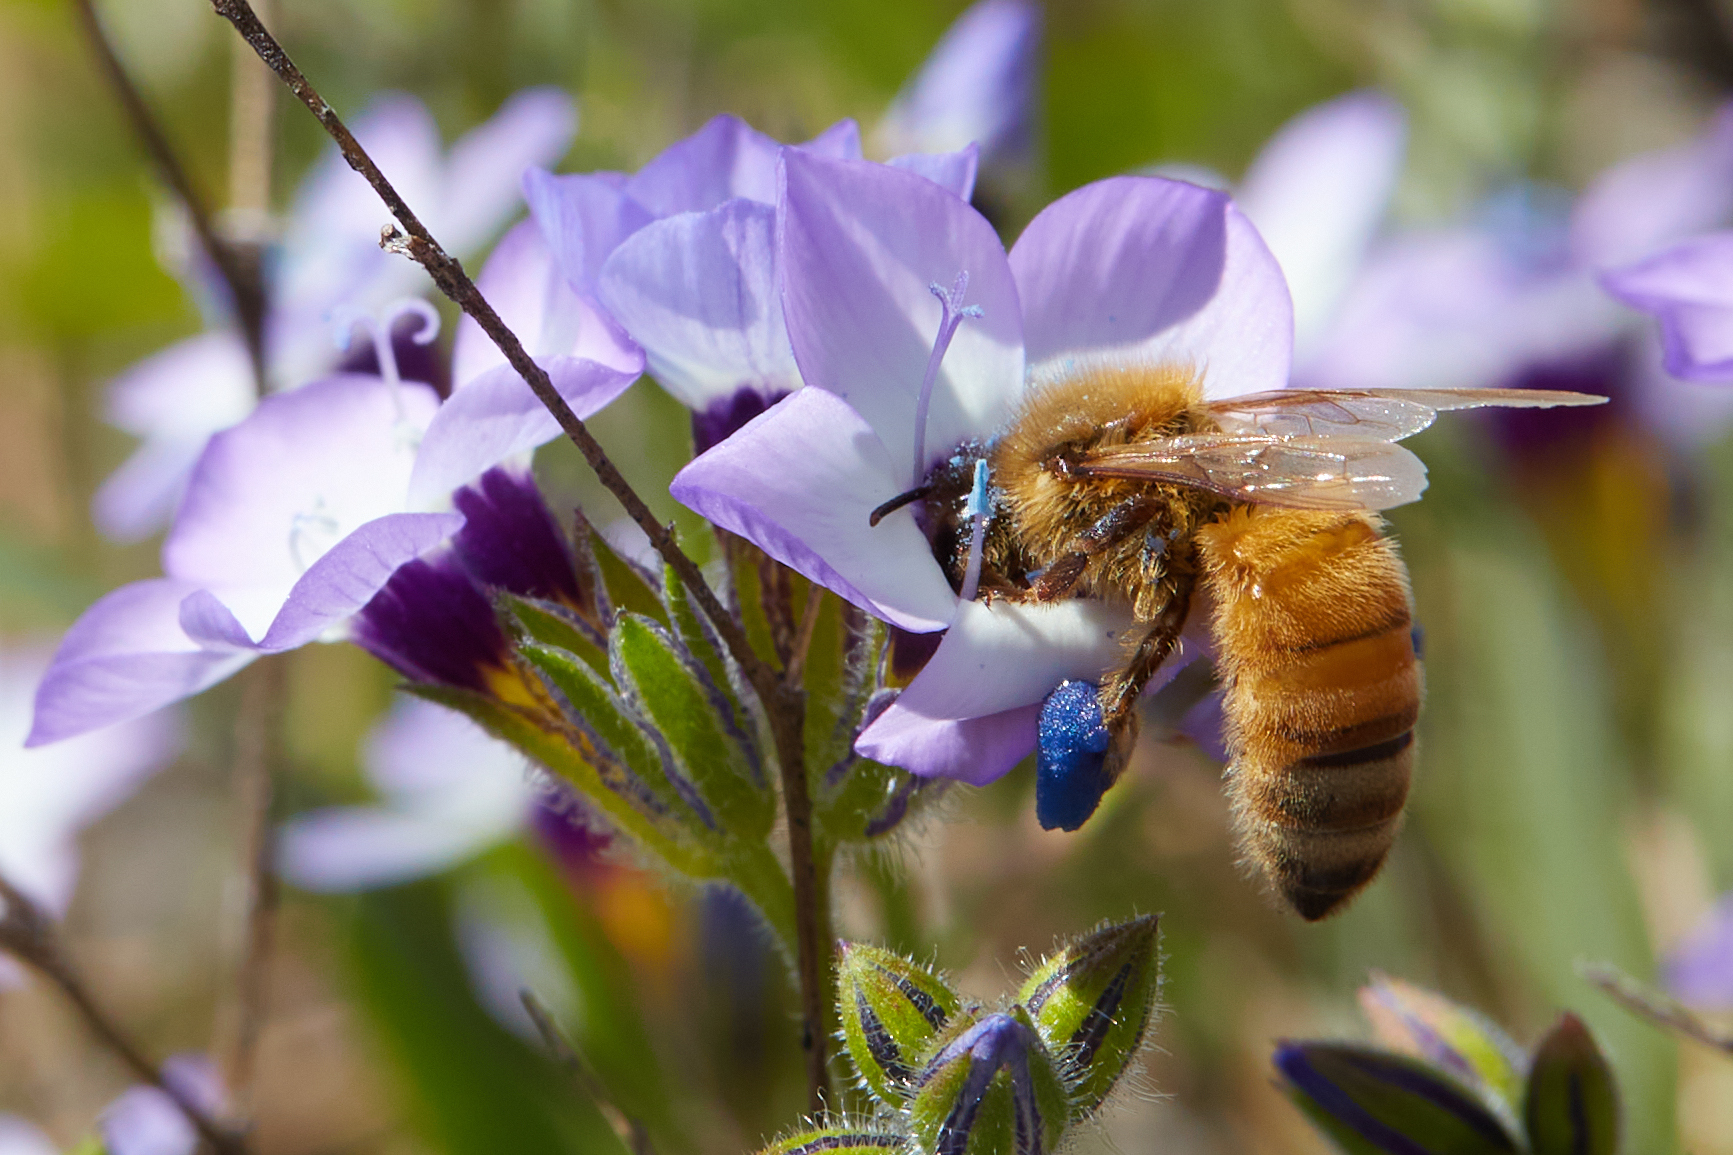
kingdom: Animalia
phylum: Arthropoda
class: Insecta
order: Hymenoptera
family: Apidae
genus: Apis
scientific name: Apis mellifera
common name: Honey bee
